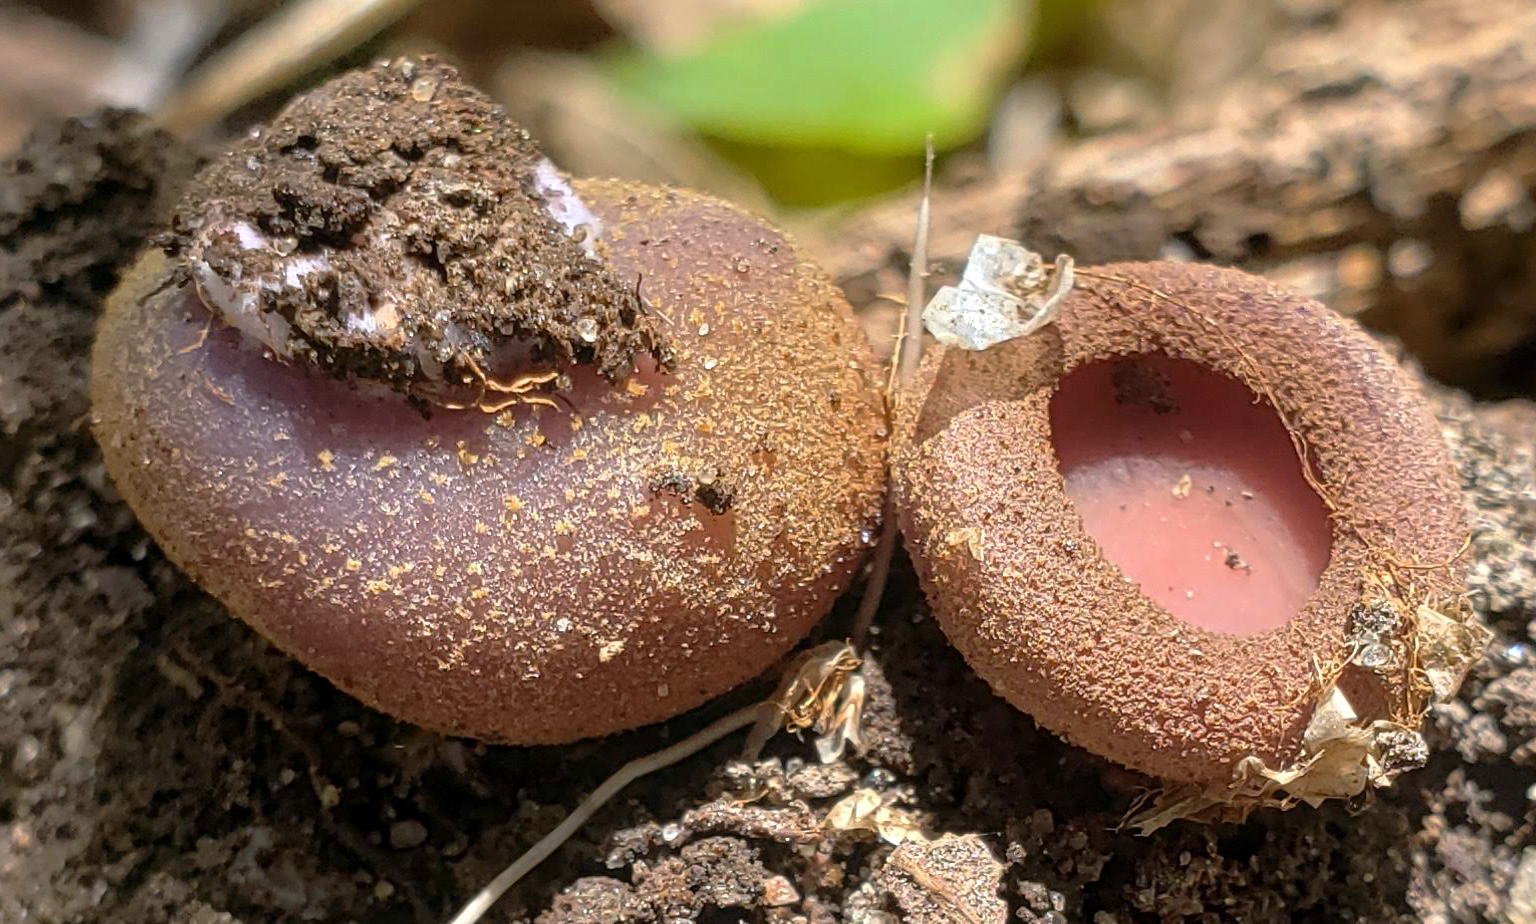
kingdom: Fungi
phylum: Ascomycota
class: Pezizomycetes
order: Pezizales
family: Pezizaceae
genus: Phylloscypha
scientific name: Phylloscypha phyllogena
